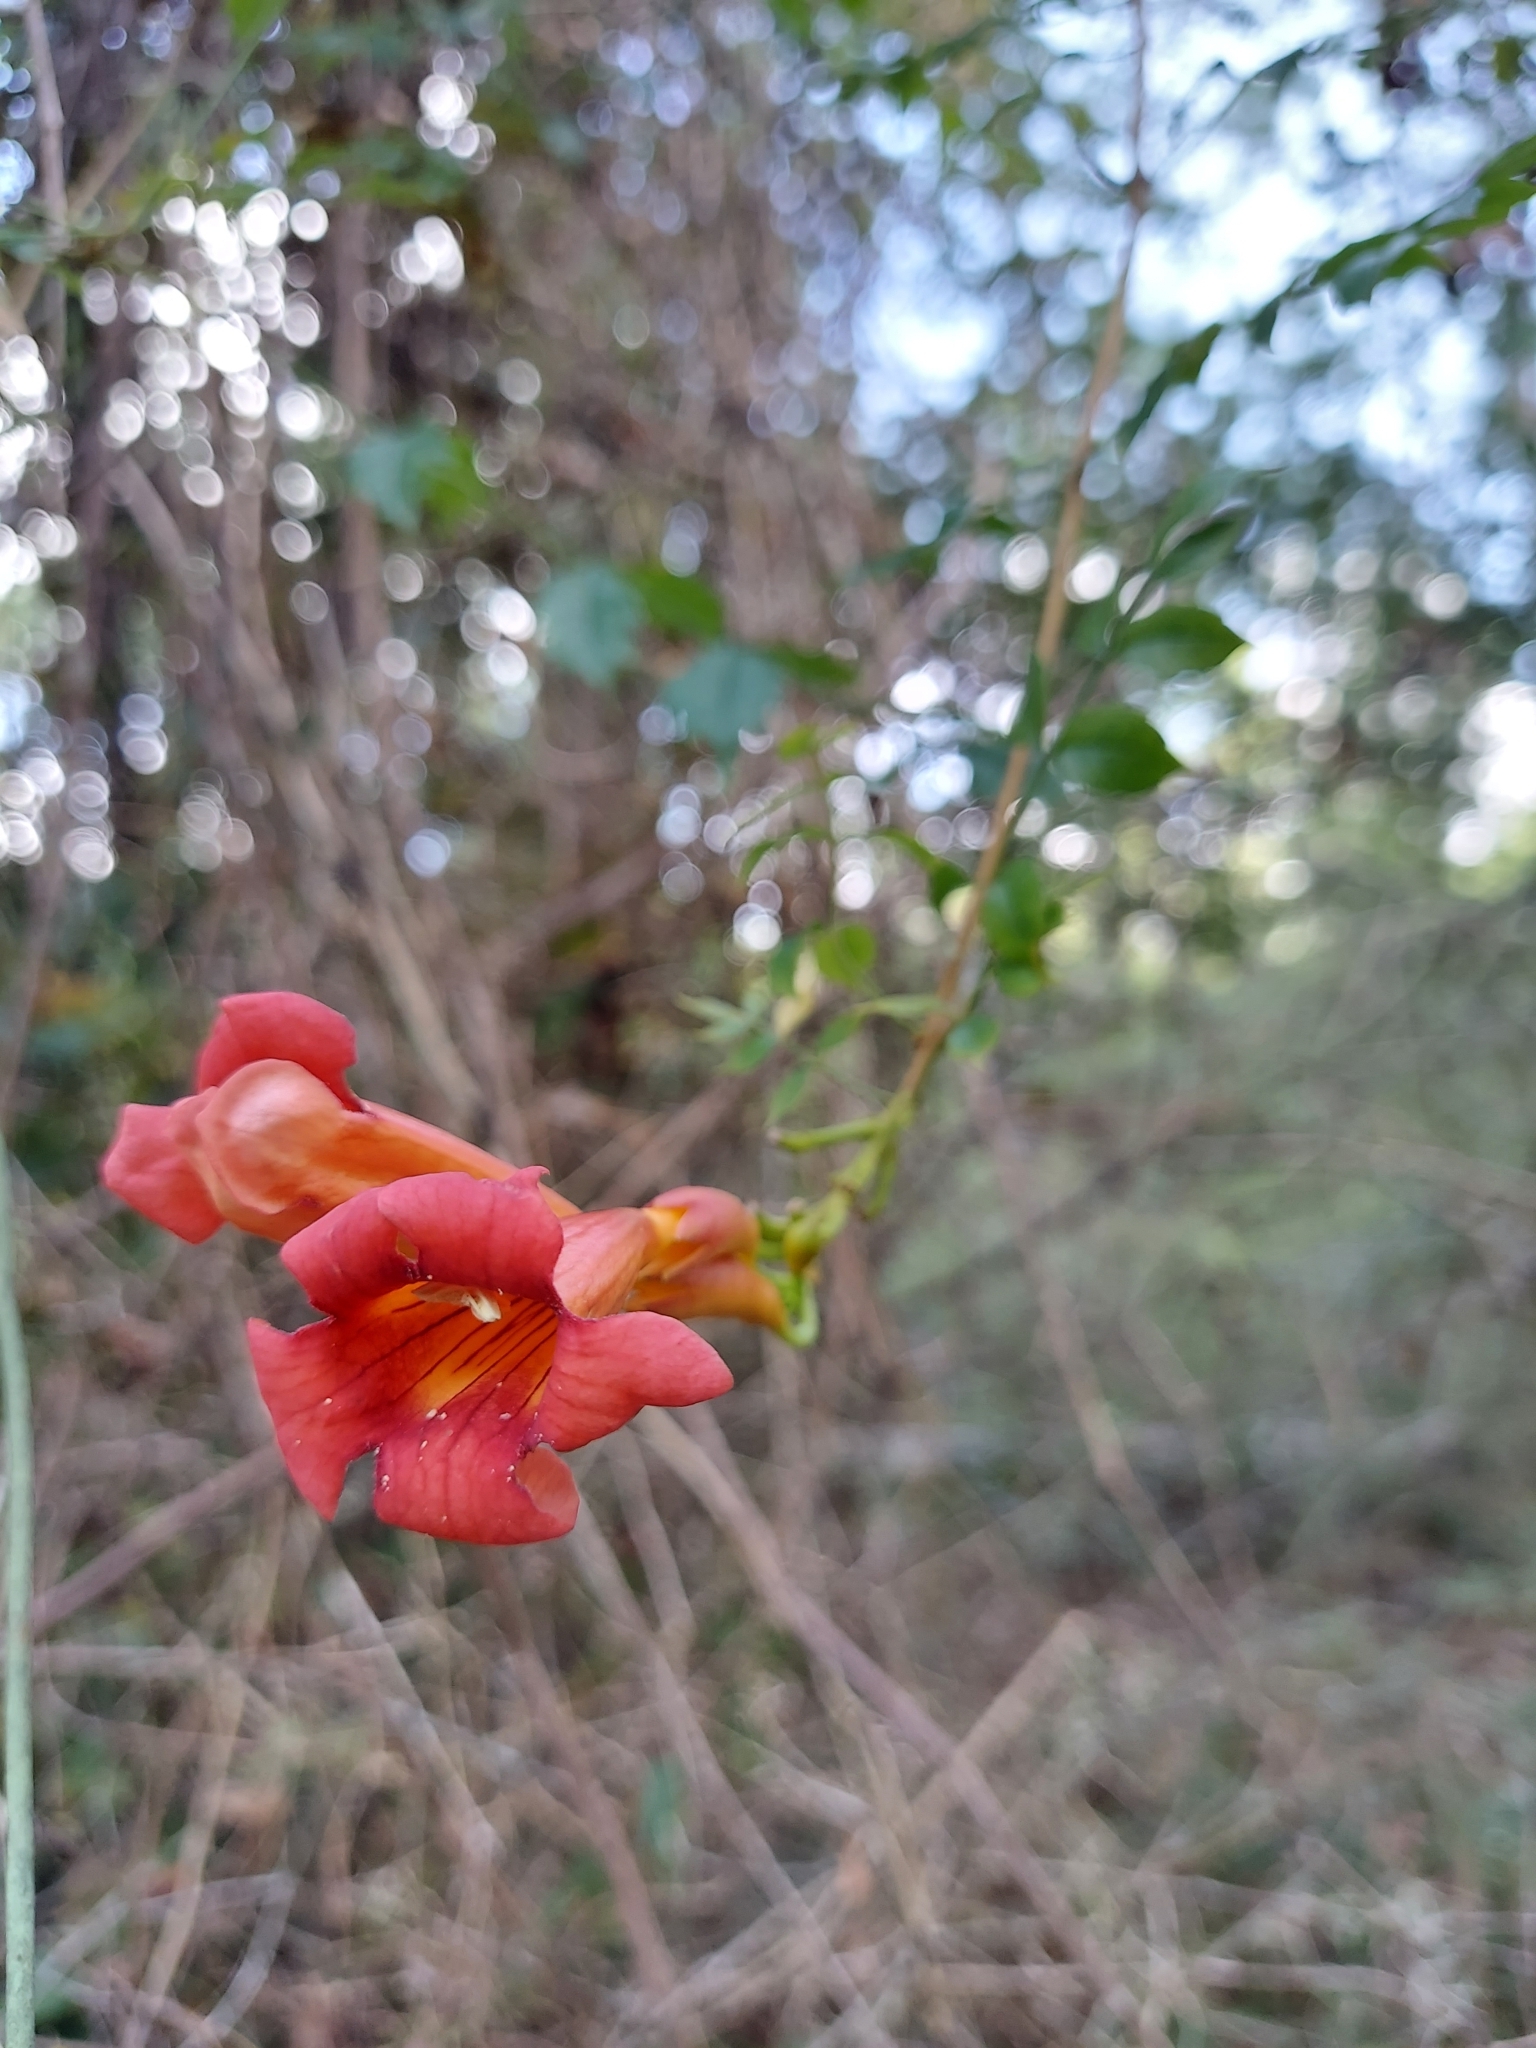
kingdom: Plantae
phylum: Tracheophyta
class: Magnoliopsida
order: Lamiales
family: Bignoniaceae
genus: Campsis
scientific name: Campsis radicans
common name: Trumpet-creeper
